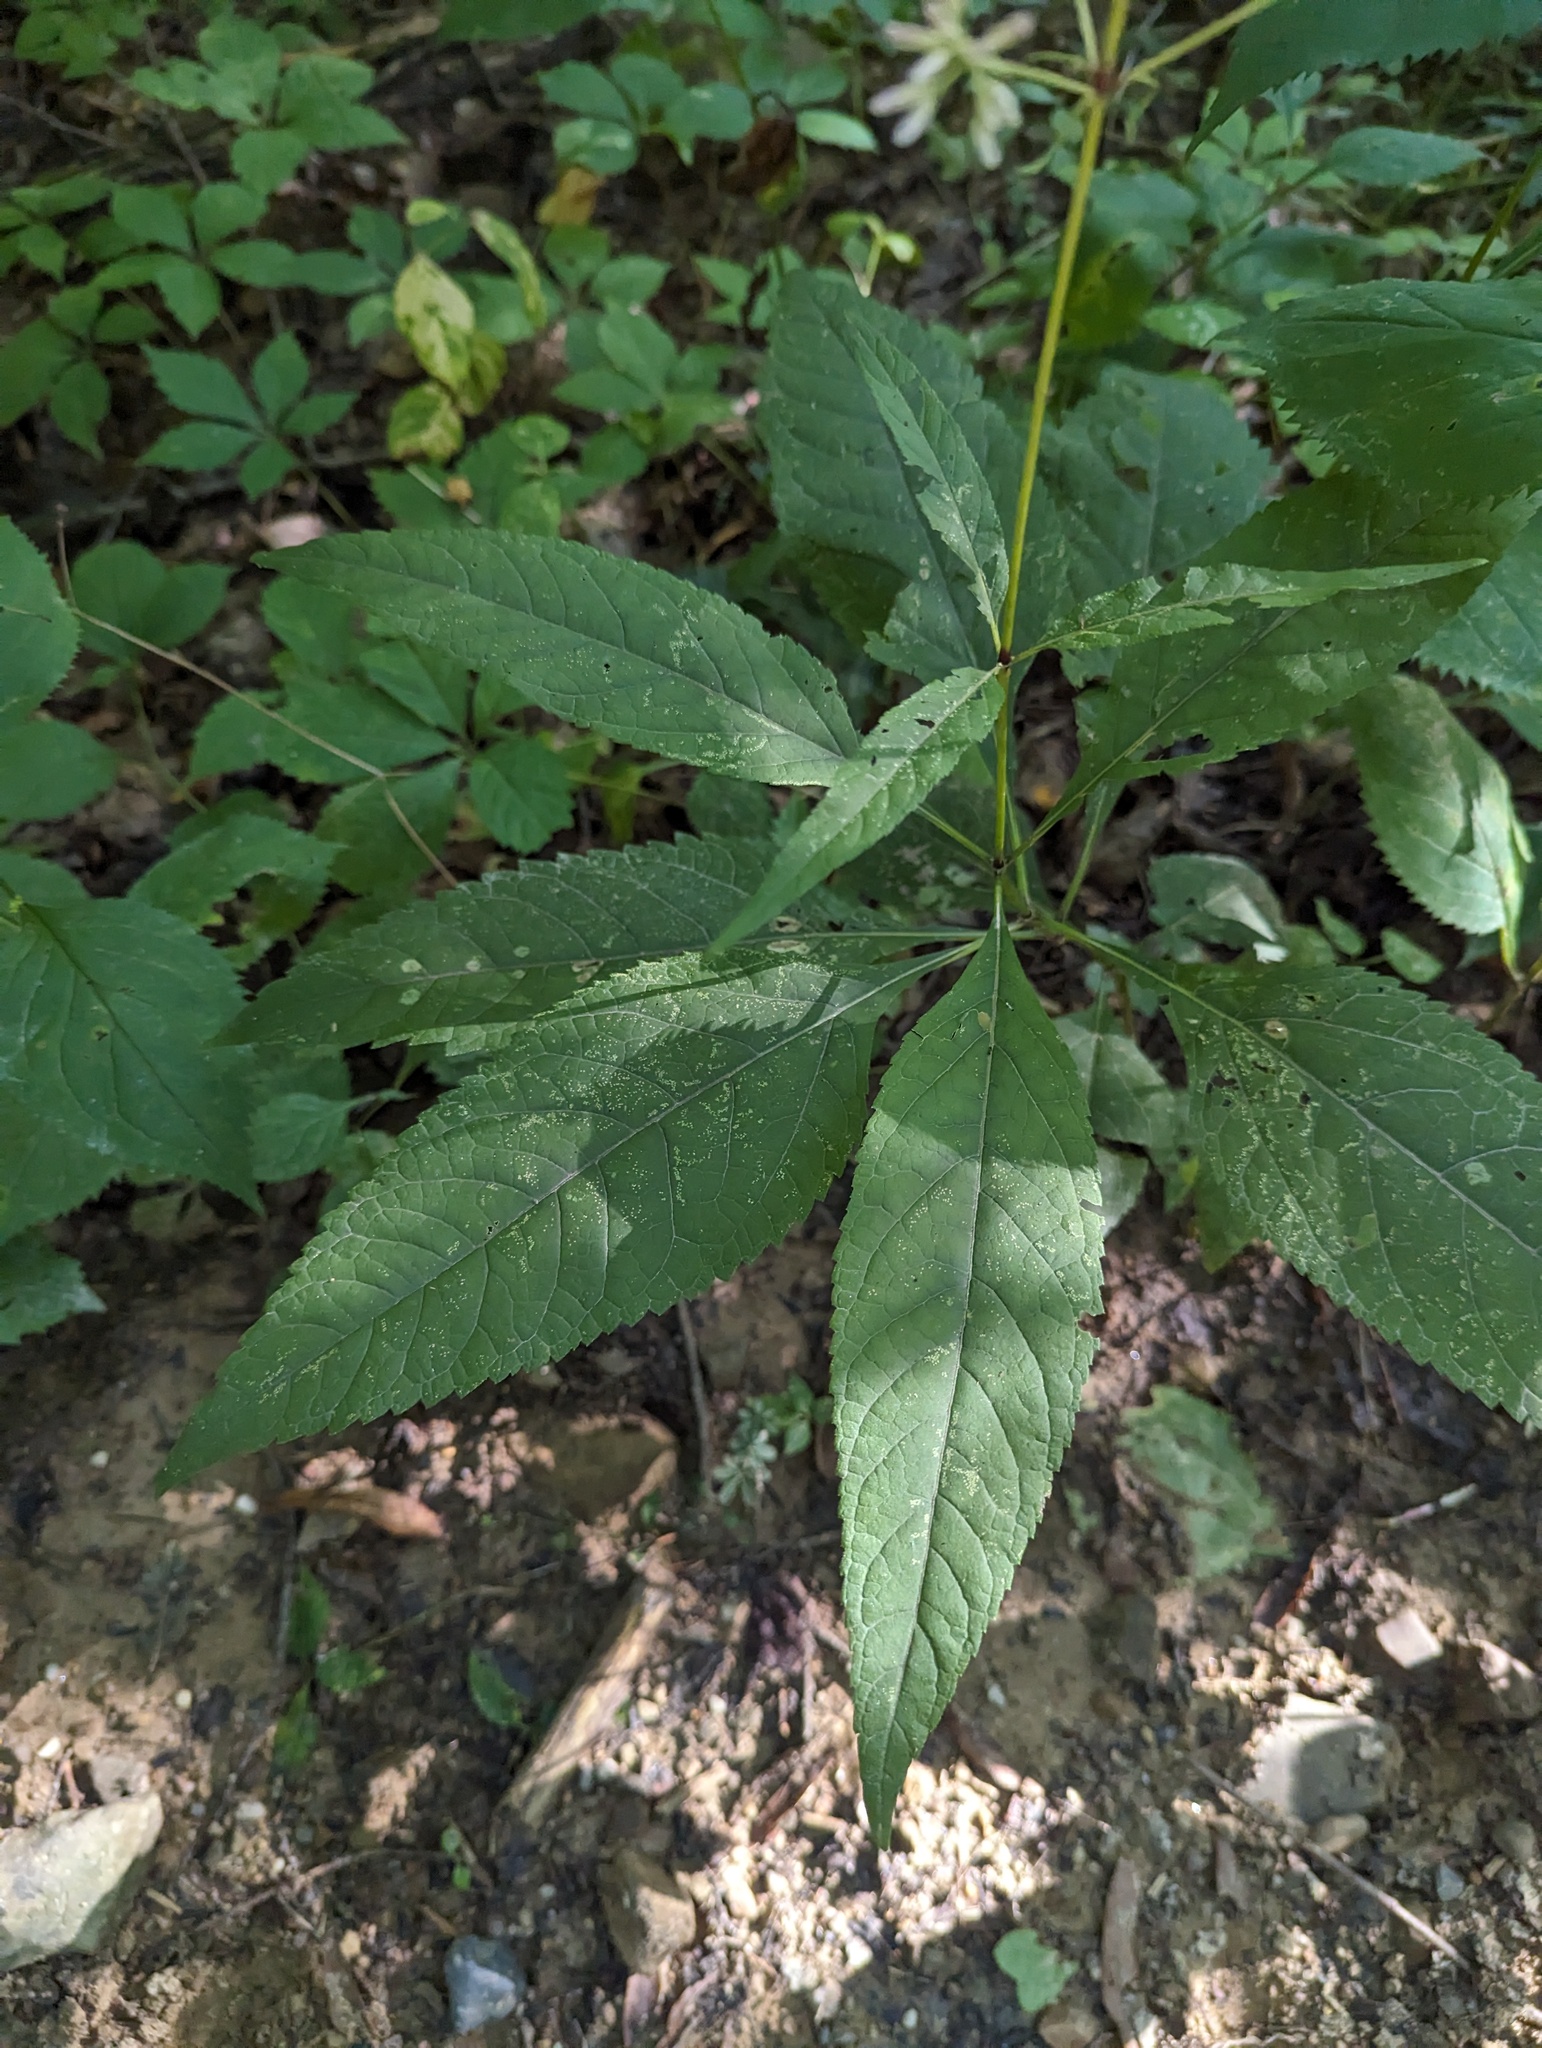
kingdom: Plantae
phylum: Tracheophyta
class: Magnoliopsida
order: Asterales
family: Asteraceae
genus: Eutrochium
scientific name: Eutrochium purpureum
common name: Gravelroot
